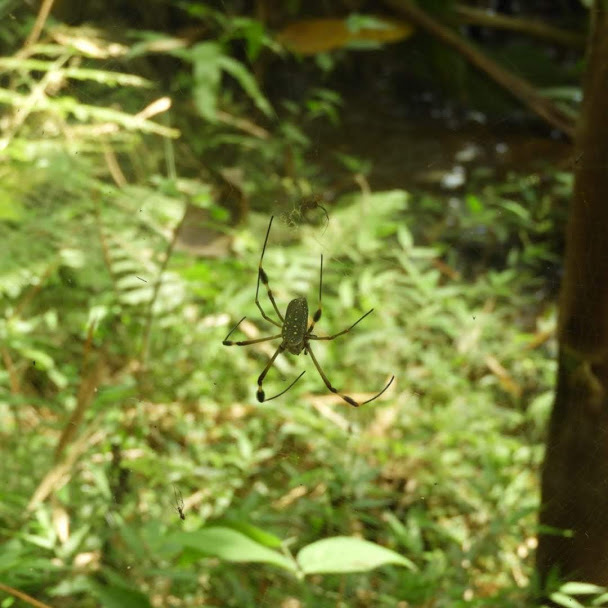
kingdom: Animalia
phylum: Arthropoda
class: Arachnida
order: Araneae
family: Araneidae
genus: Trichonephila
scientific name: Trichonephila clavipes
